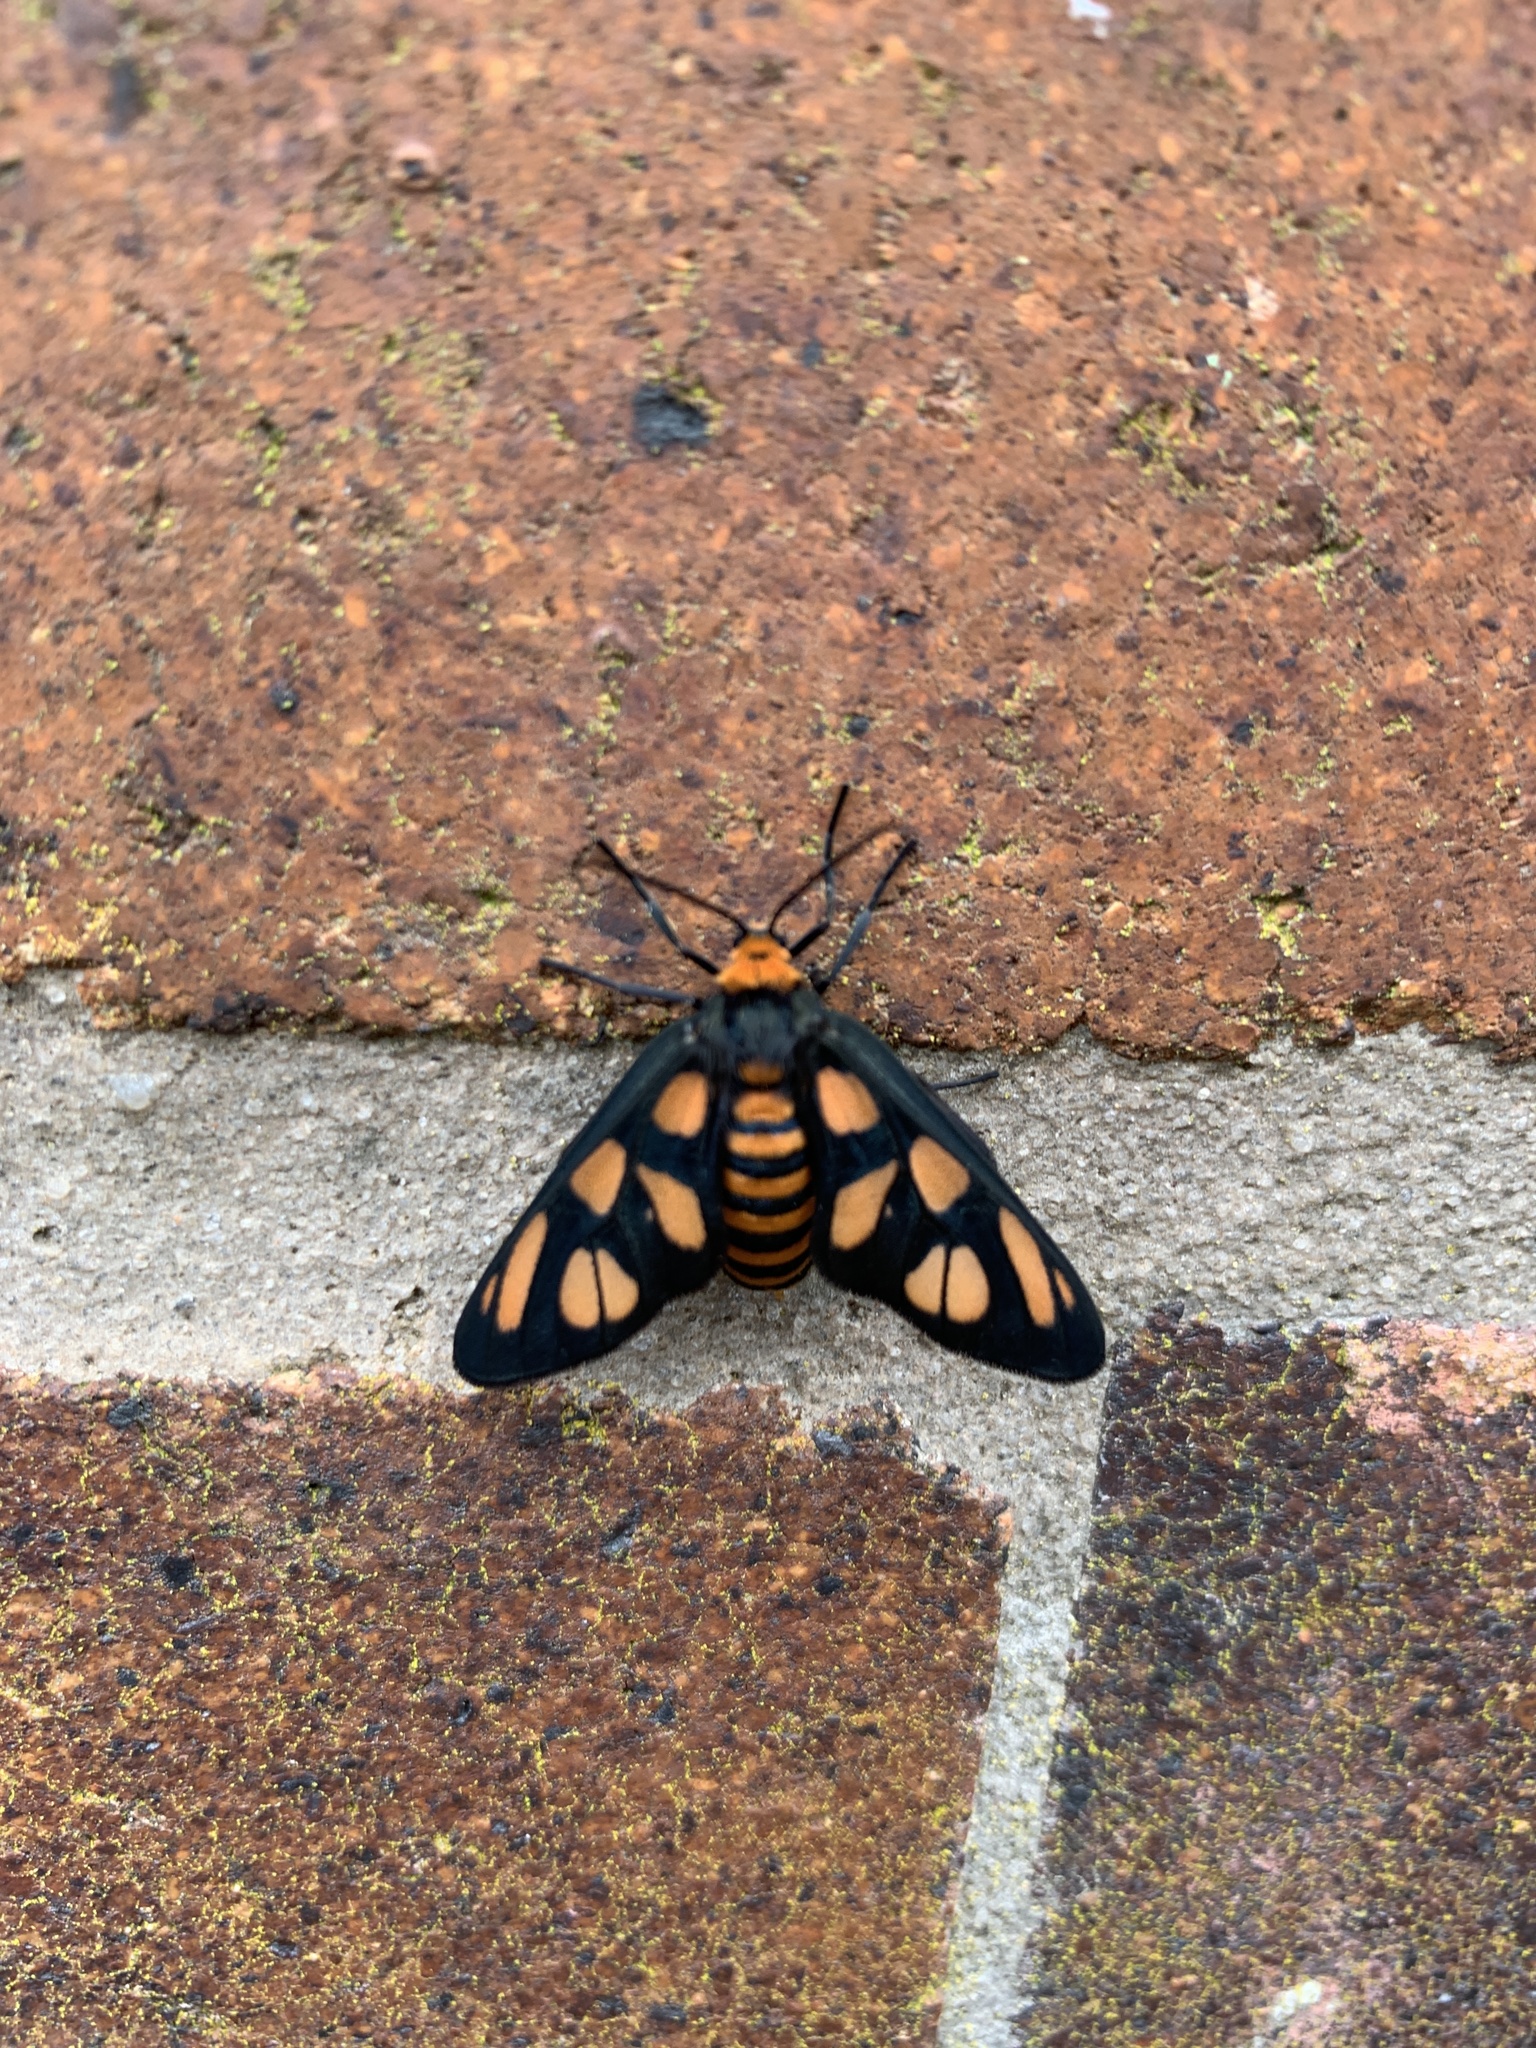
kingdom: Animalia
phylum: Arthropoda
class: Insecta
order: Lepidoptera
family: Erebidae
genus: Amata
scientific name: Amata aperta
